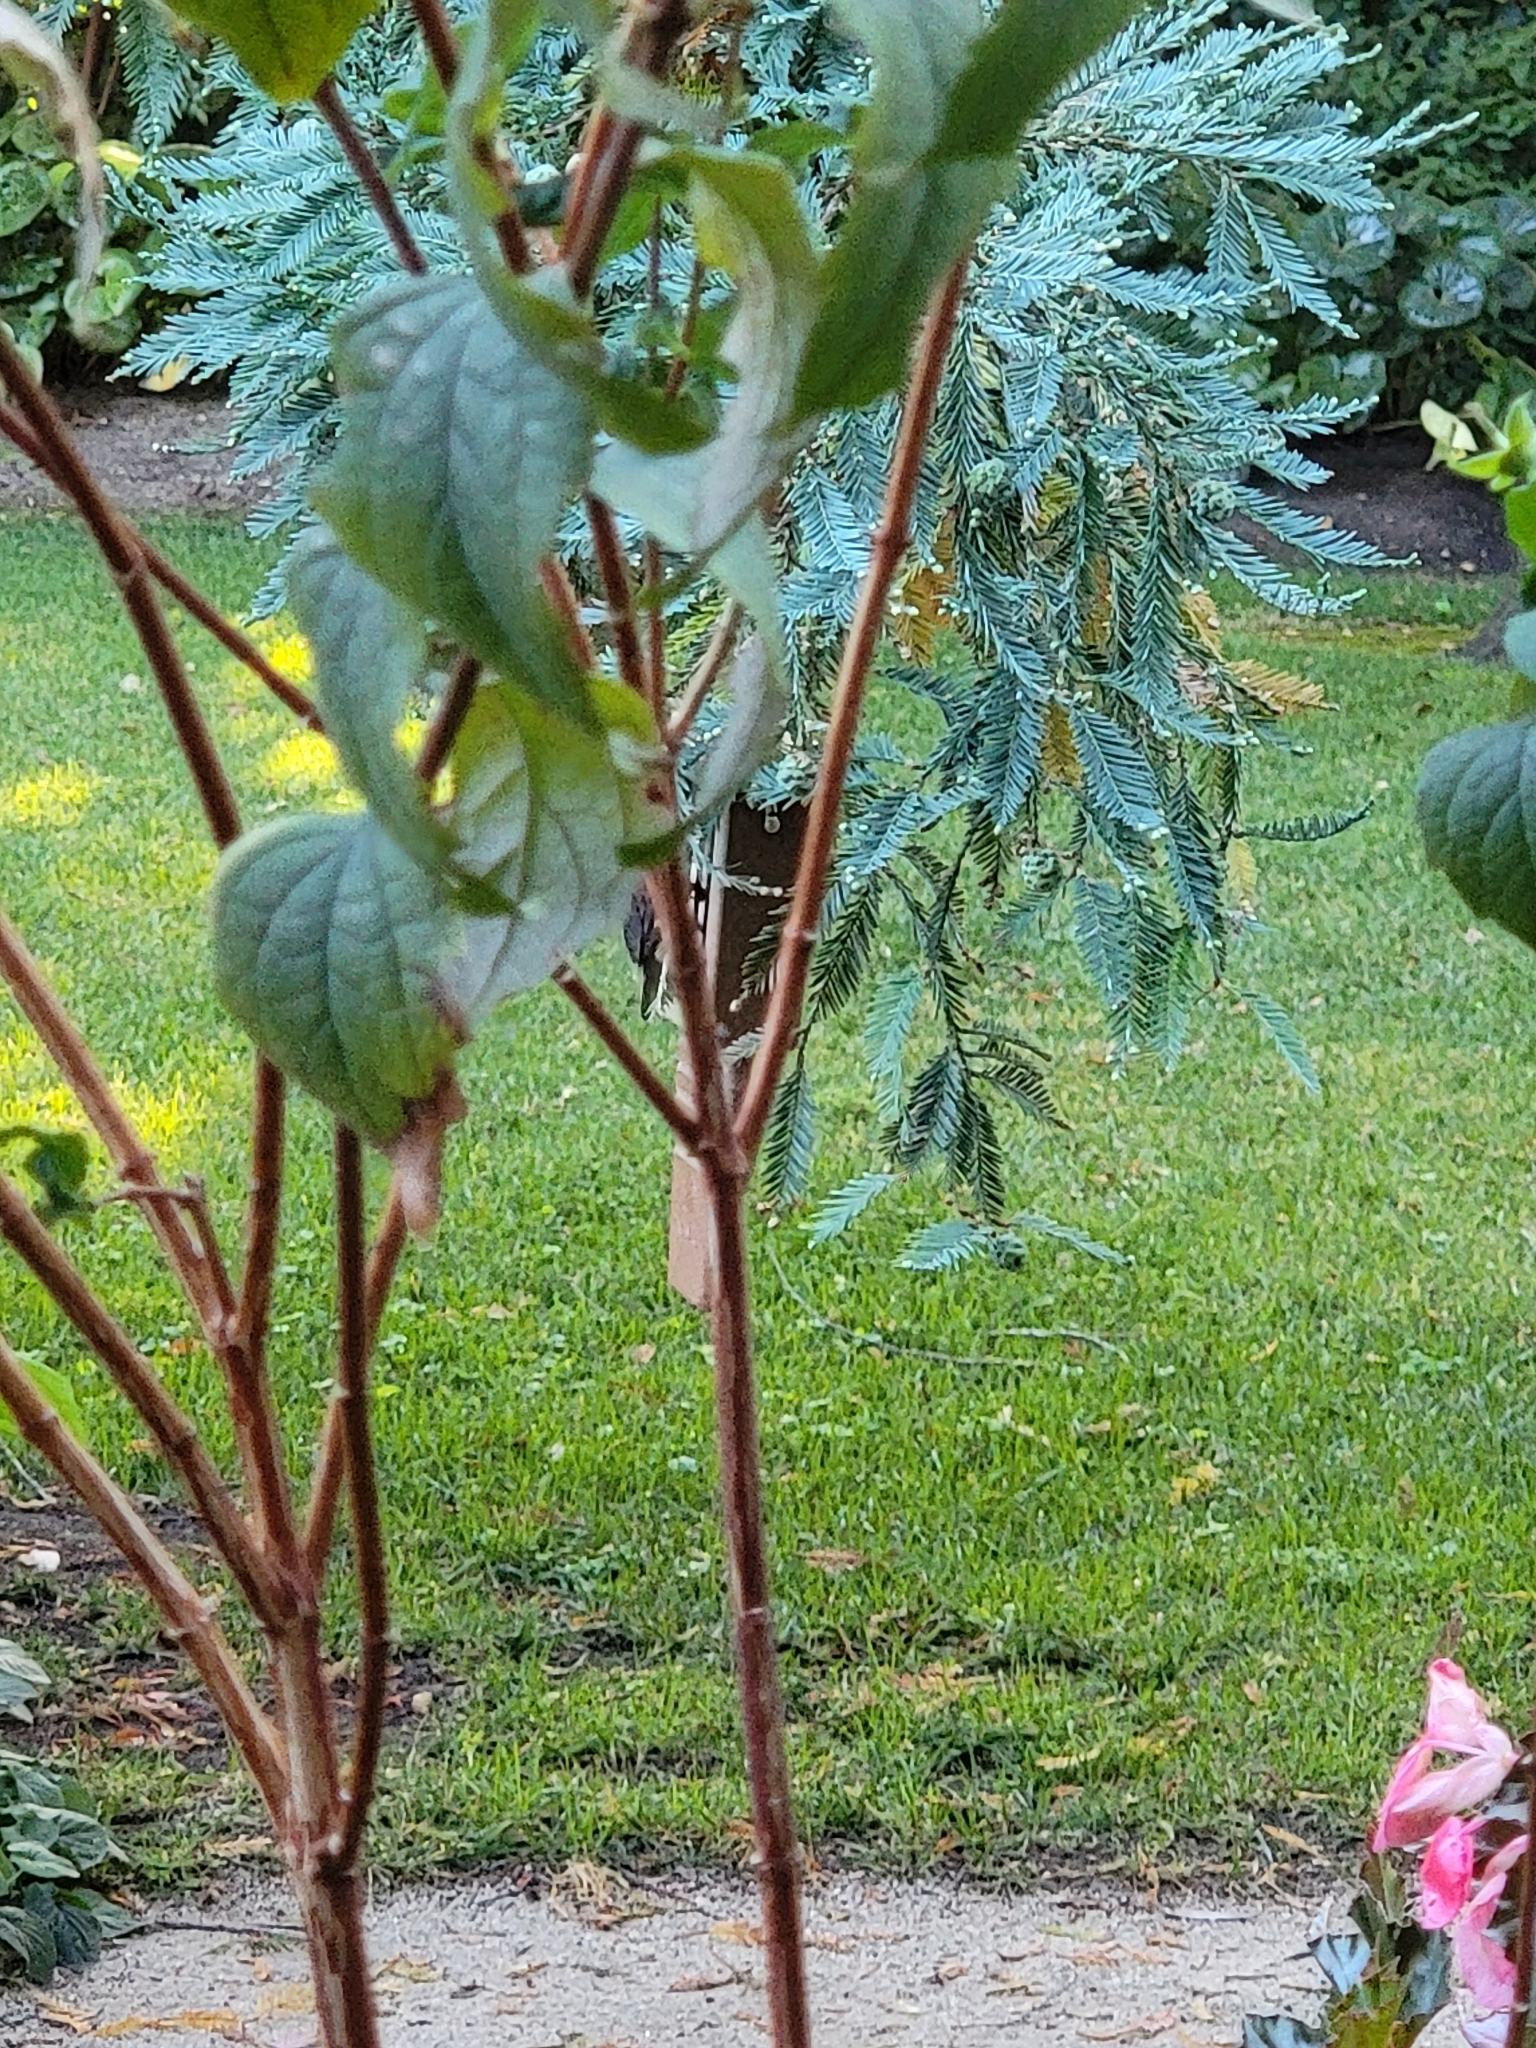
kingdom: Animalia
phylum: Chordata
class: Aves
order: Passeriformes
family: Passerellidae
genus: Junco
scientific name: Junco hyemalis
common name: Dark-eyed junco
